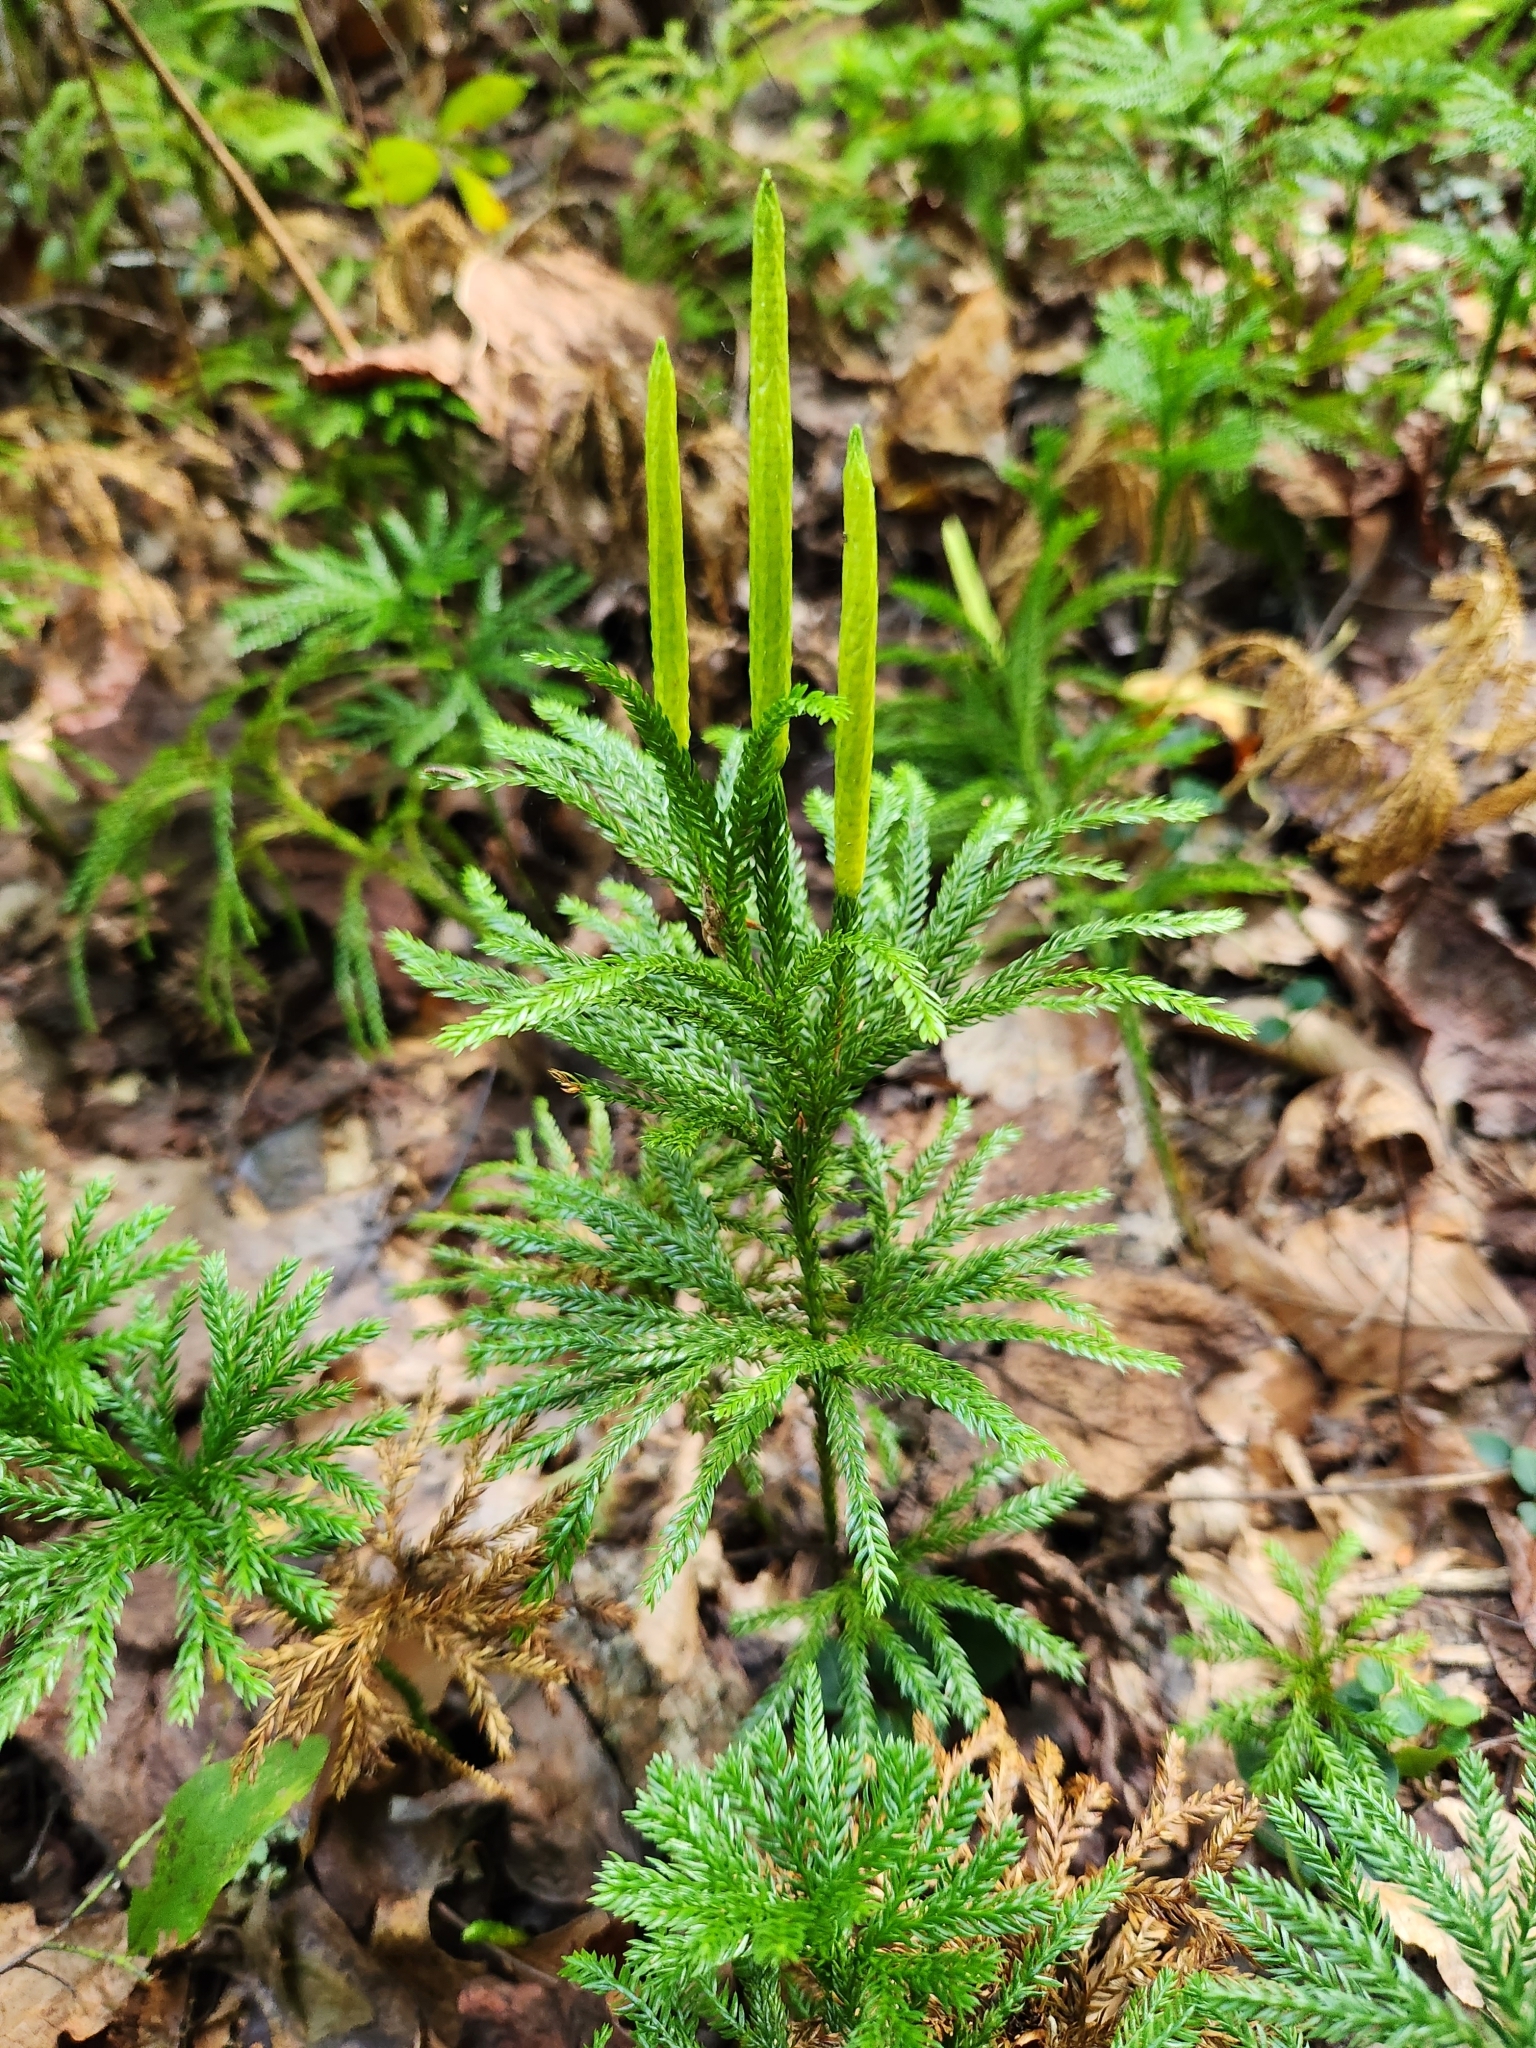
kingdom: Plantae
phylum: Tracheophyta
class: Lycopodiopsida
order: Lycopodiales
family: Lycopodiaceae
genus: Dendrolycopodium
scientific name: Dendrolycopodium obscurum
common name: Common ground-pine
